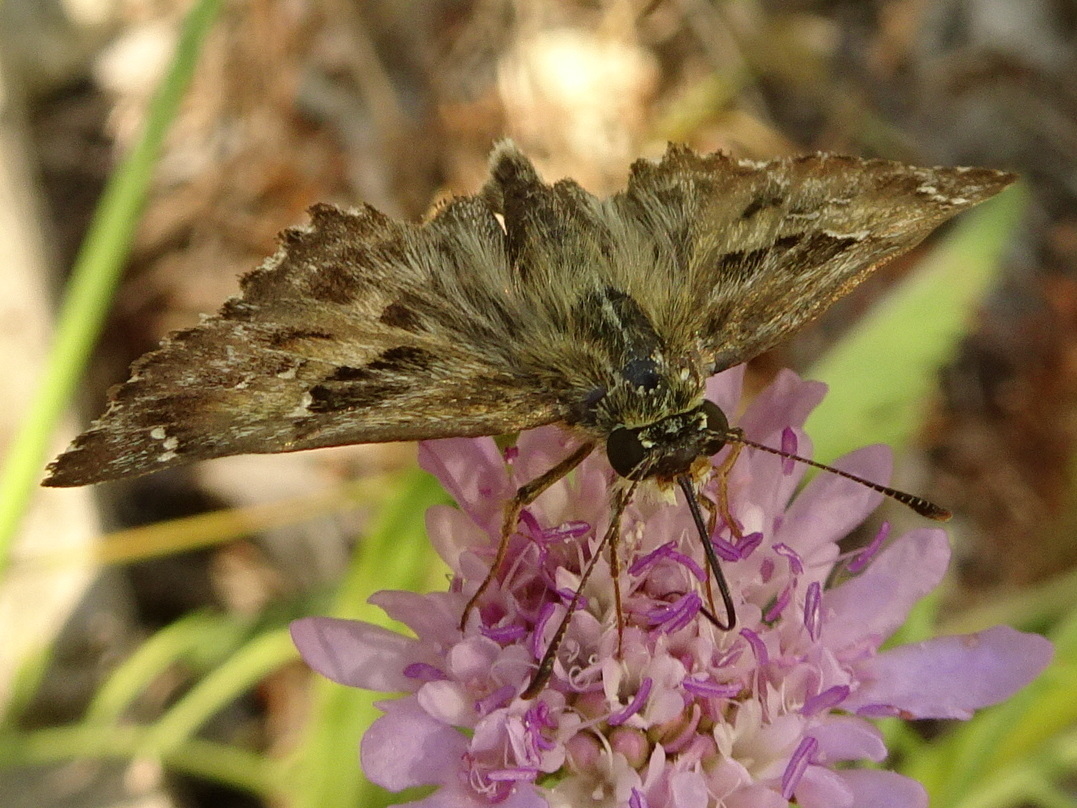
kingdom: Animalia
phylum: Arthropoda
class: Insecta
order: Lepidoptera
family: Hesperiidae
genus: Carcharodus
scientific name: Carcharodus alceae
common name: Mallow skipper
